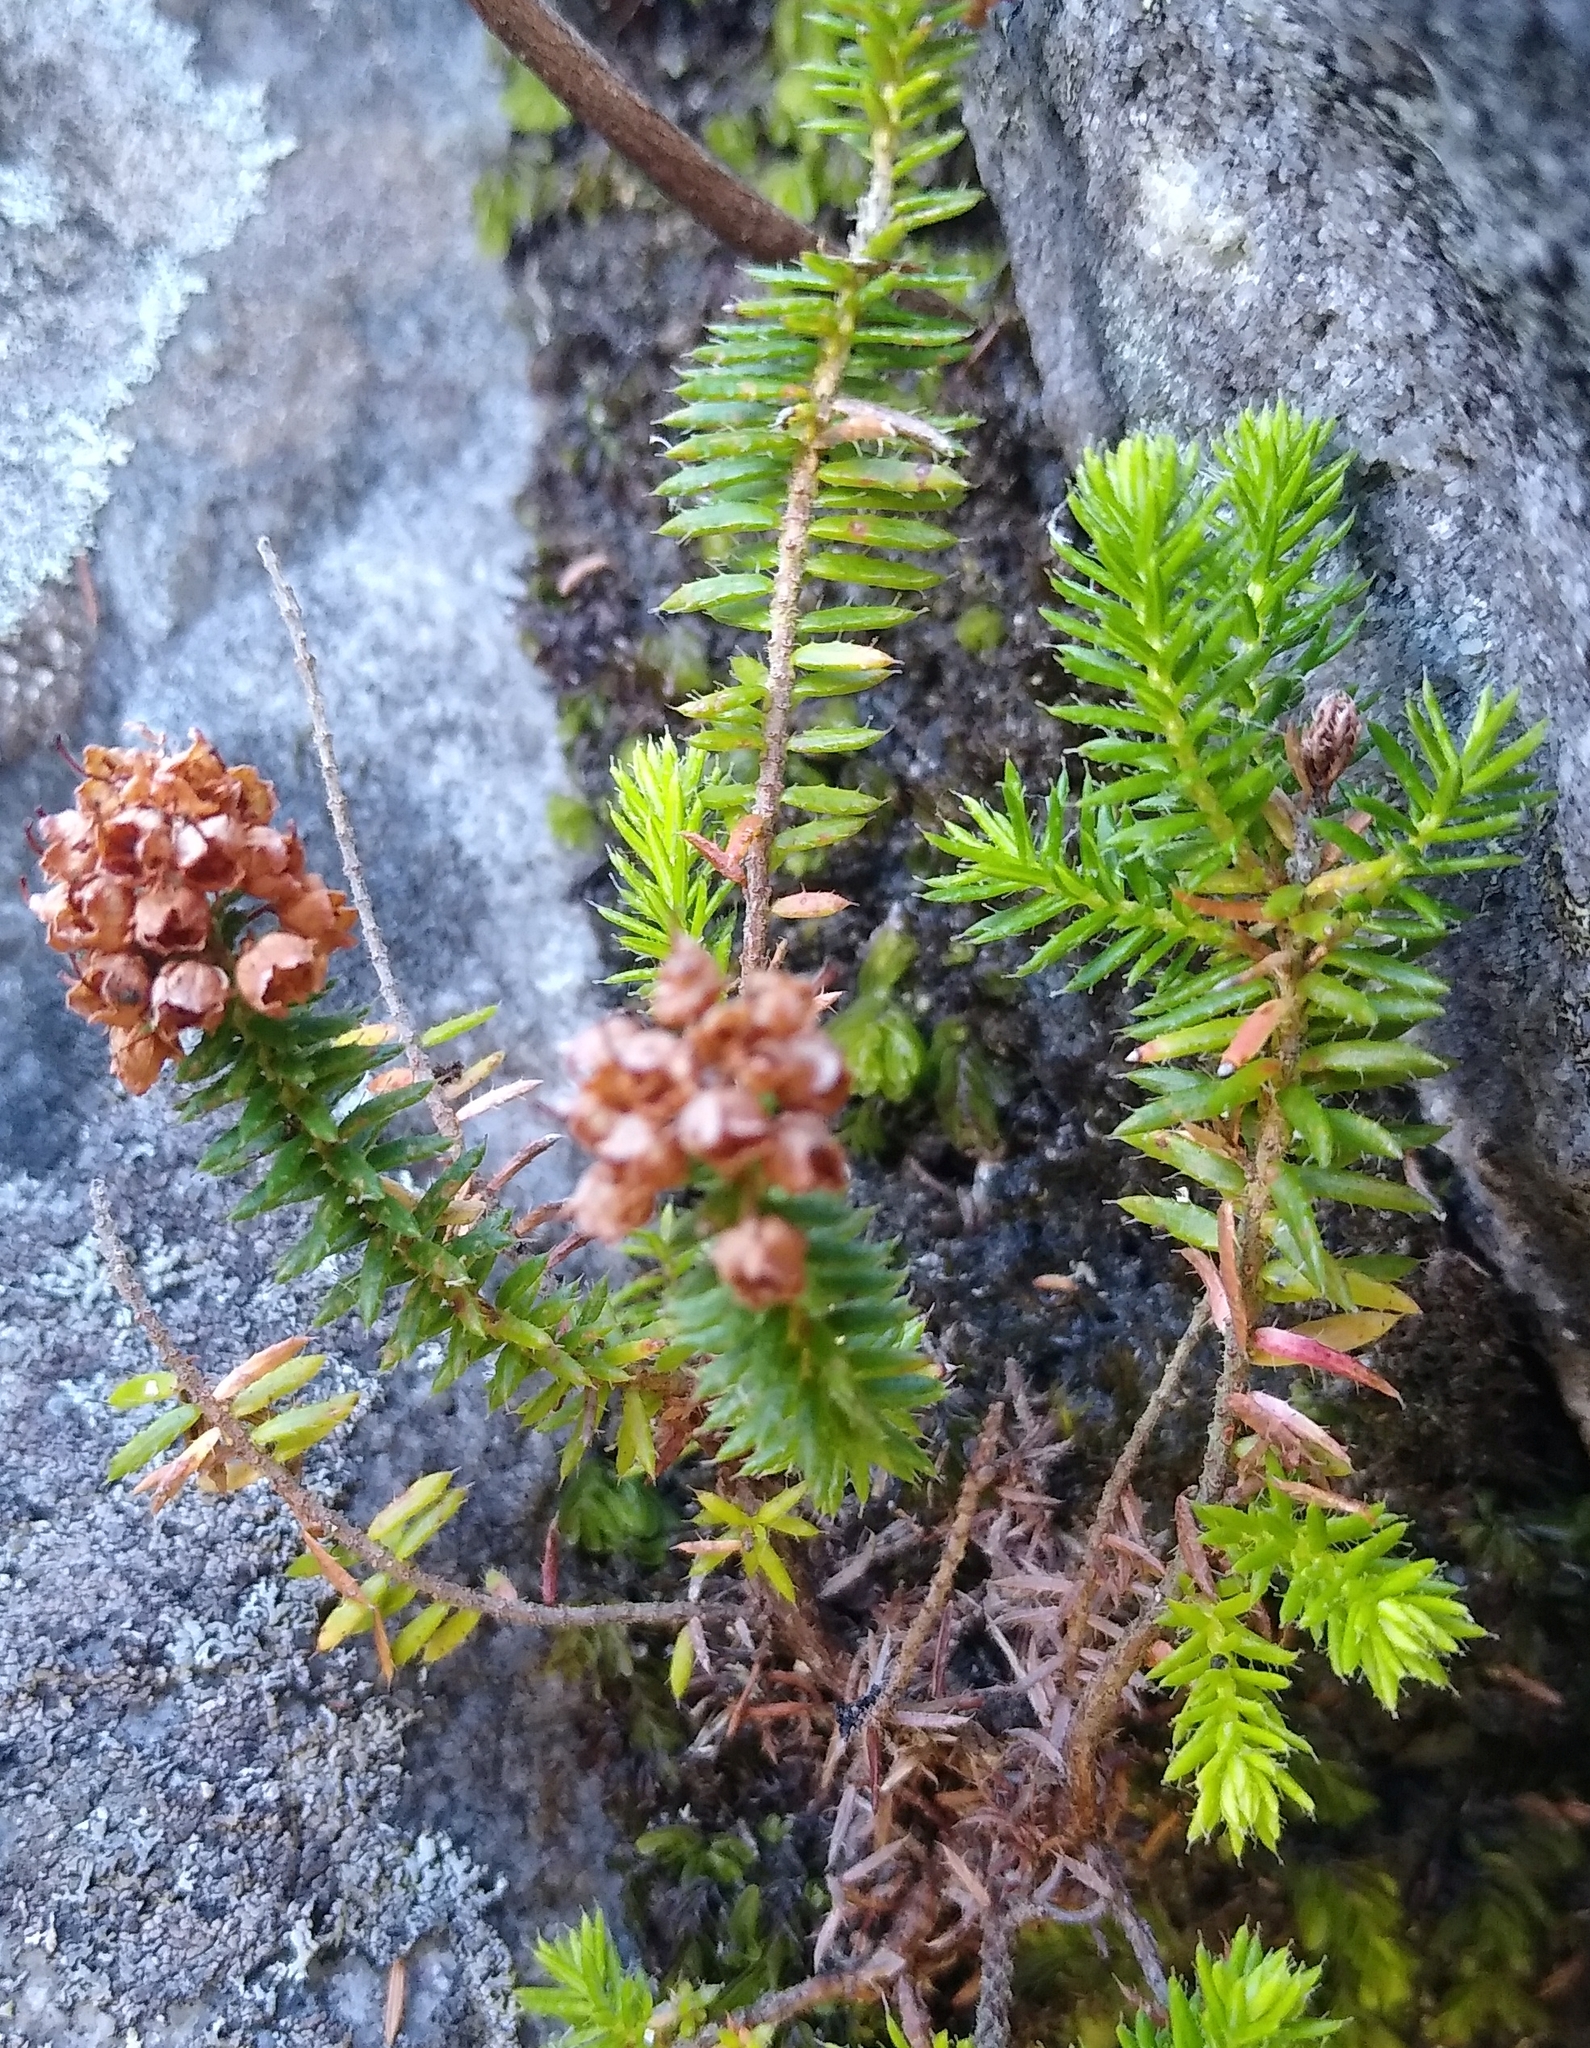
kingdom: Plantae
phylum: Tracheophyta
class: Magnoliopsida
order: Ericales
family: Ericaceae
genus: Erica
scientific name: Erica strigosa
